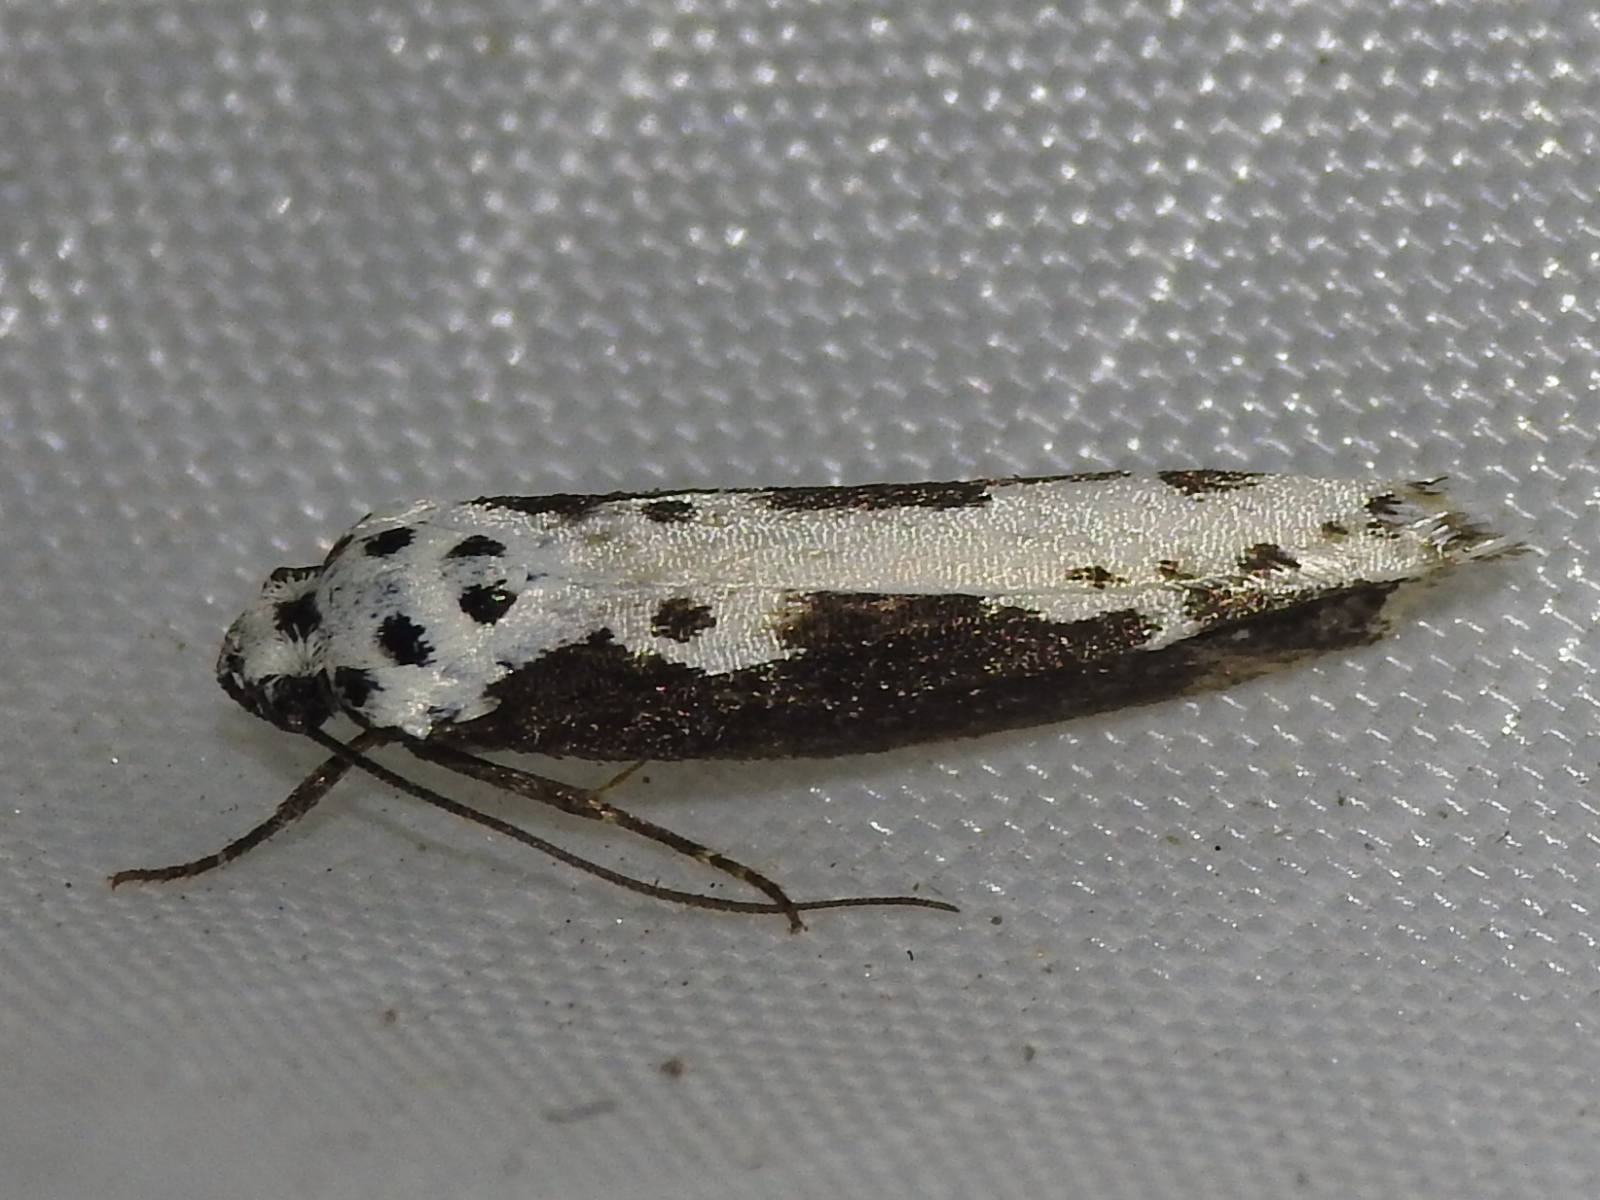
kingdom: Animalia
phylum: Arthropoda
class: Insecta
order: Lepidoptera
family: Ethmiidae
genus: Ethmia
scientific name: Ethmia semilugens
